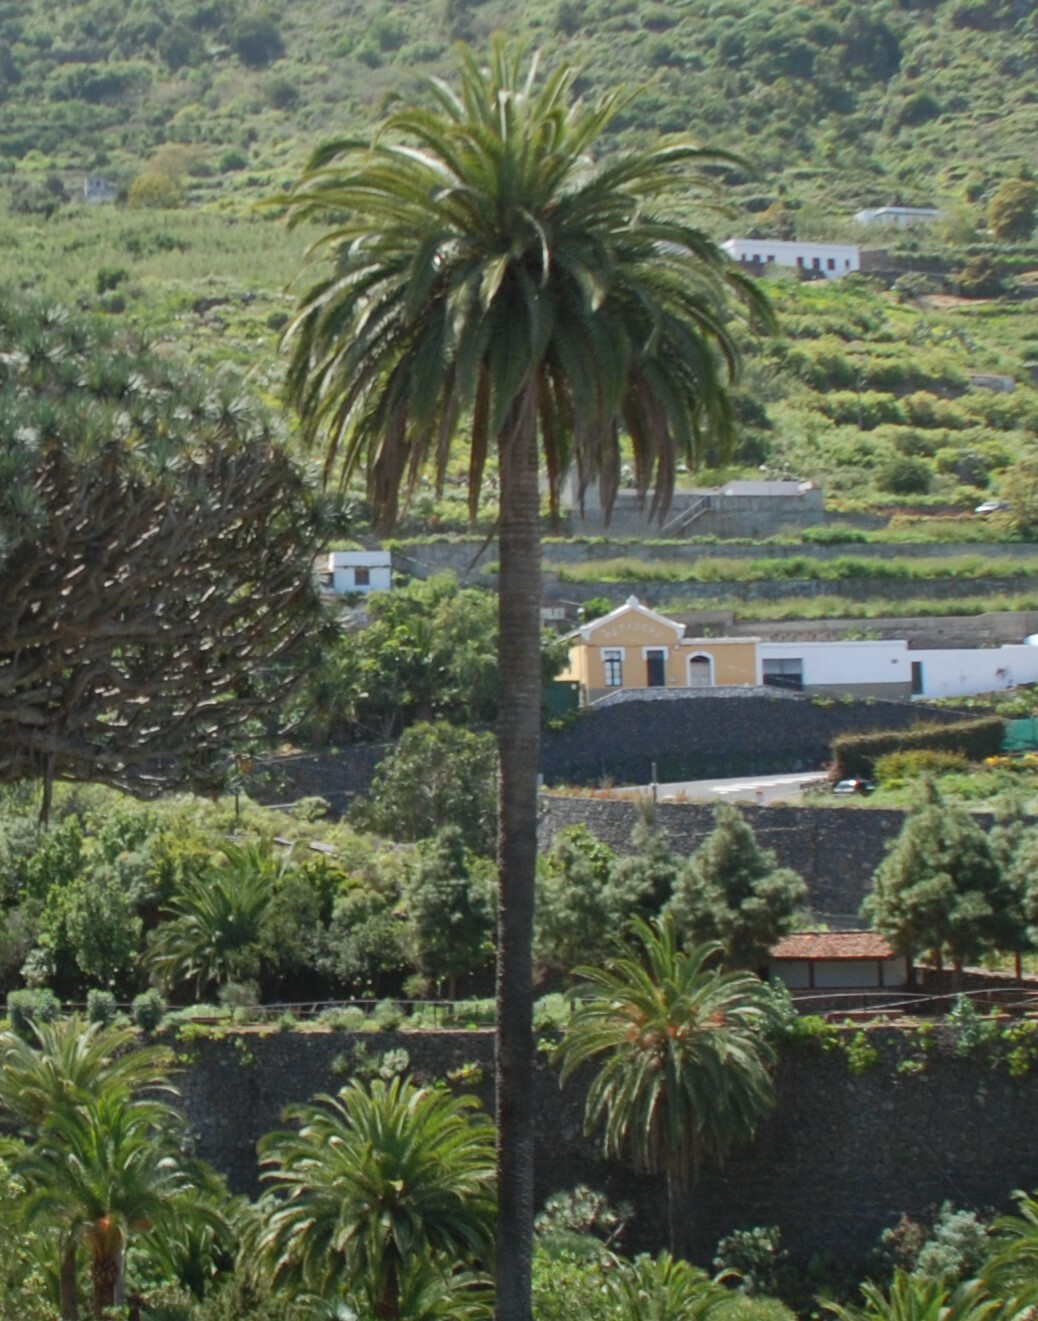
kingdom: Plantae
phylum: Tracheophyta
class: Liliopsida
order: Arecales
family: Arecaceae
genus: Phoenix
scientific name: Phoenix canariensis
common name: Canary island date palm
